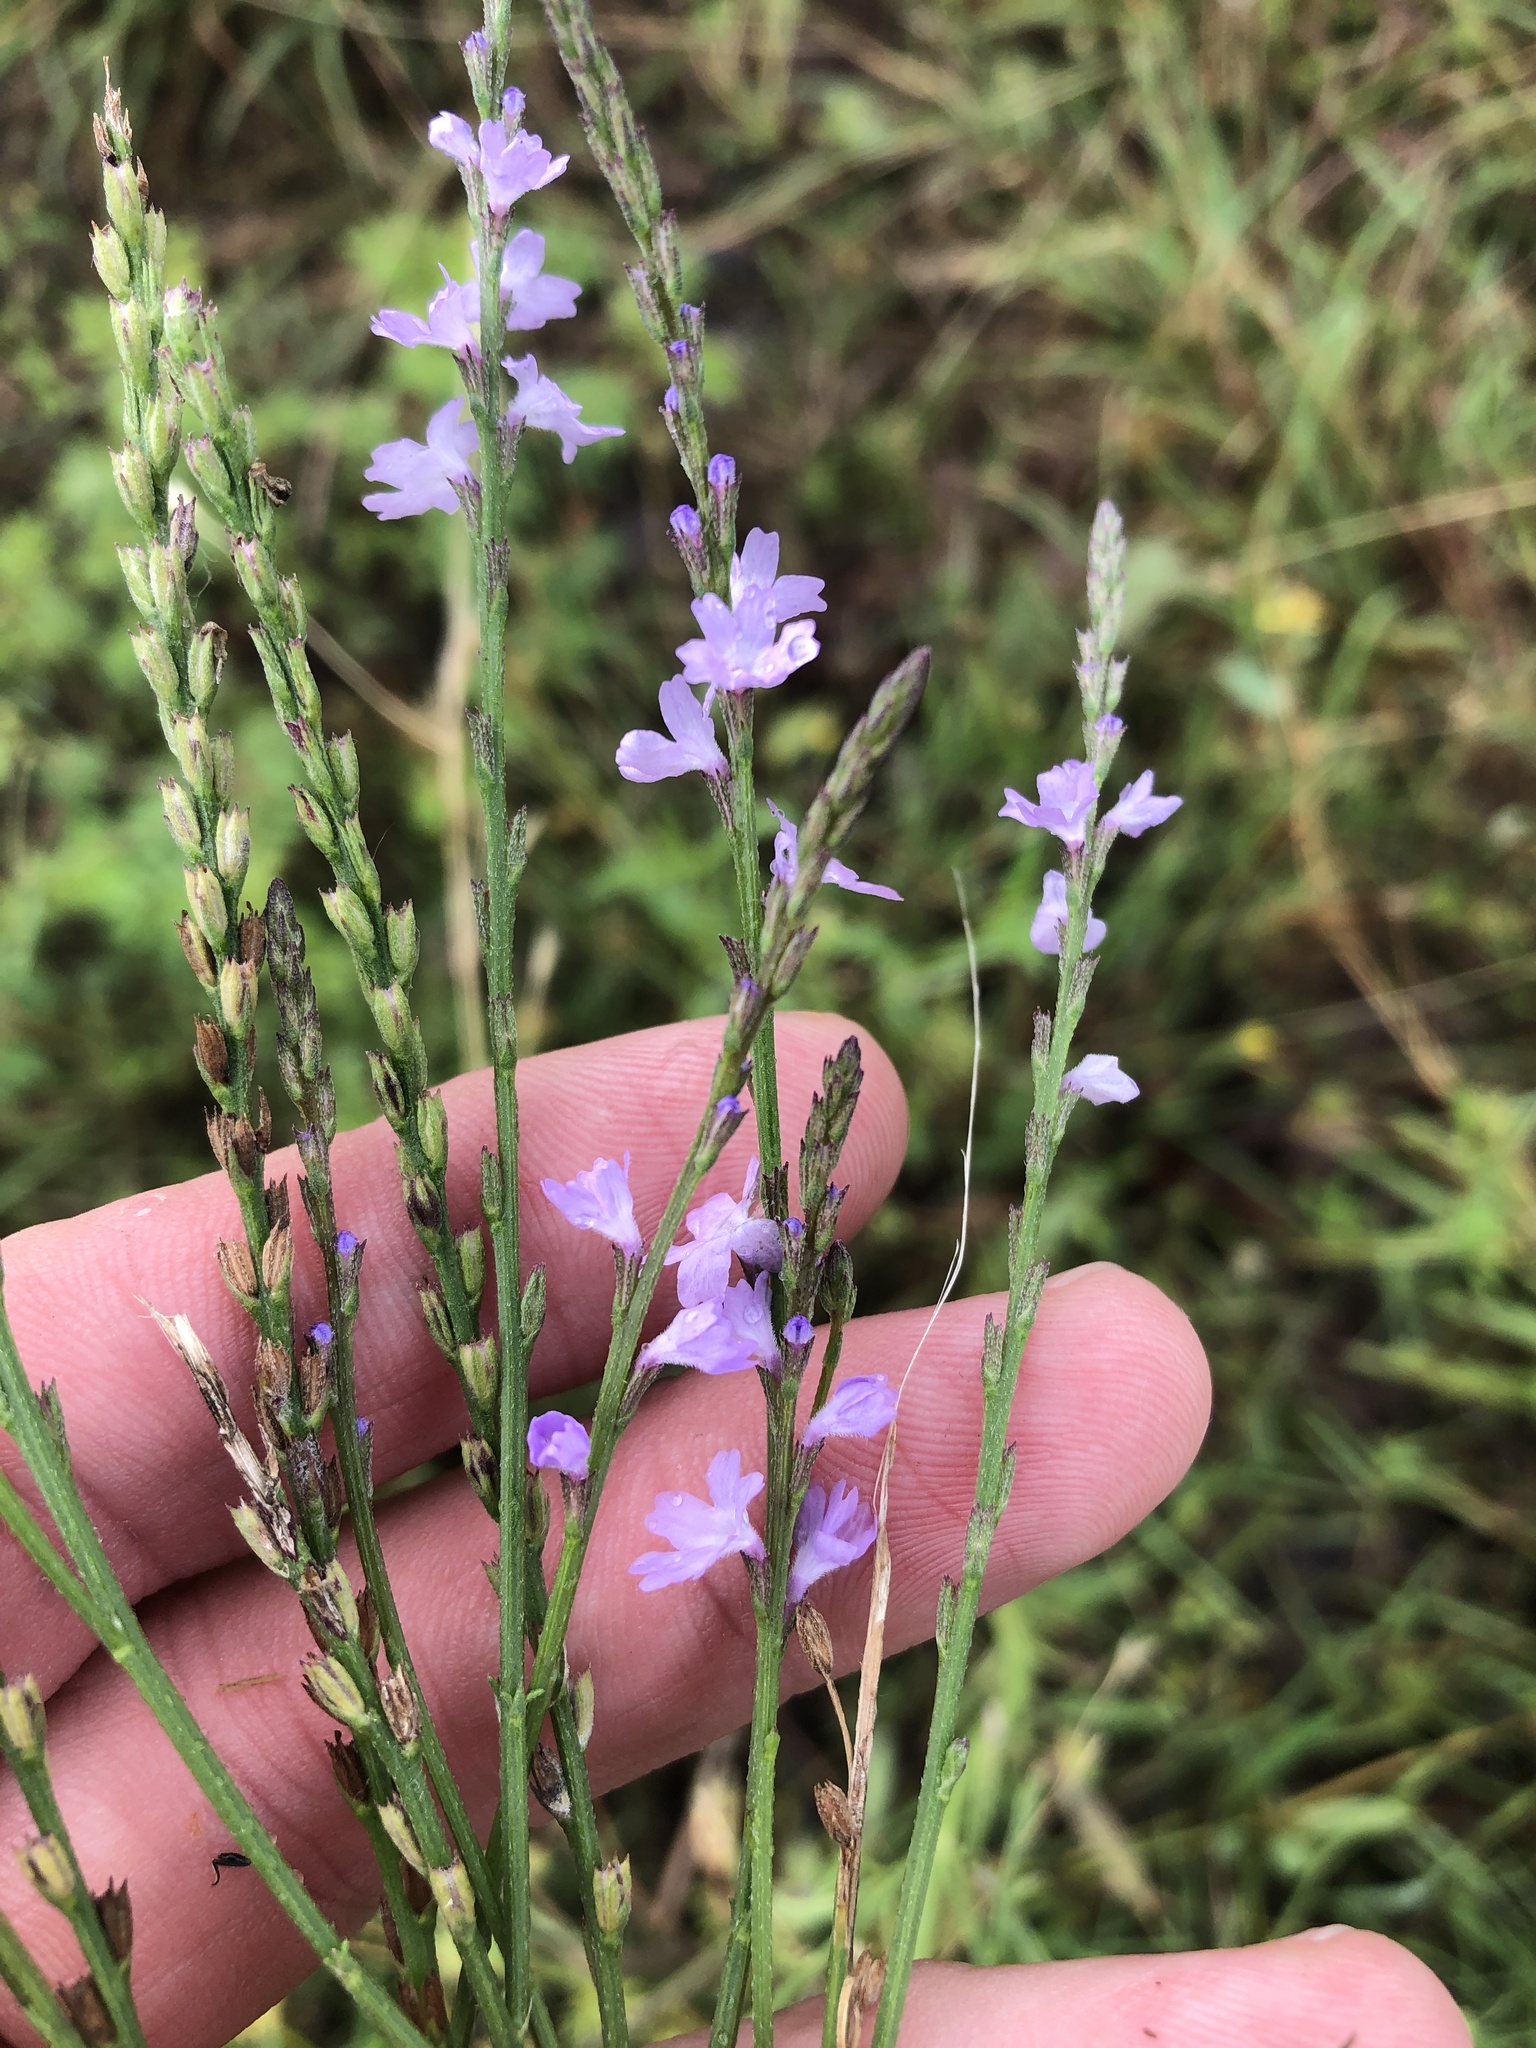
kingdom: Plantae
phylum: Tracheophyta
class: Magnoliopsida
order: Lamiales
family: Verbenaceae
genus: Verbena
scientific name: Verbena halei
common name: Texas vervain
